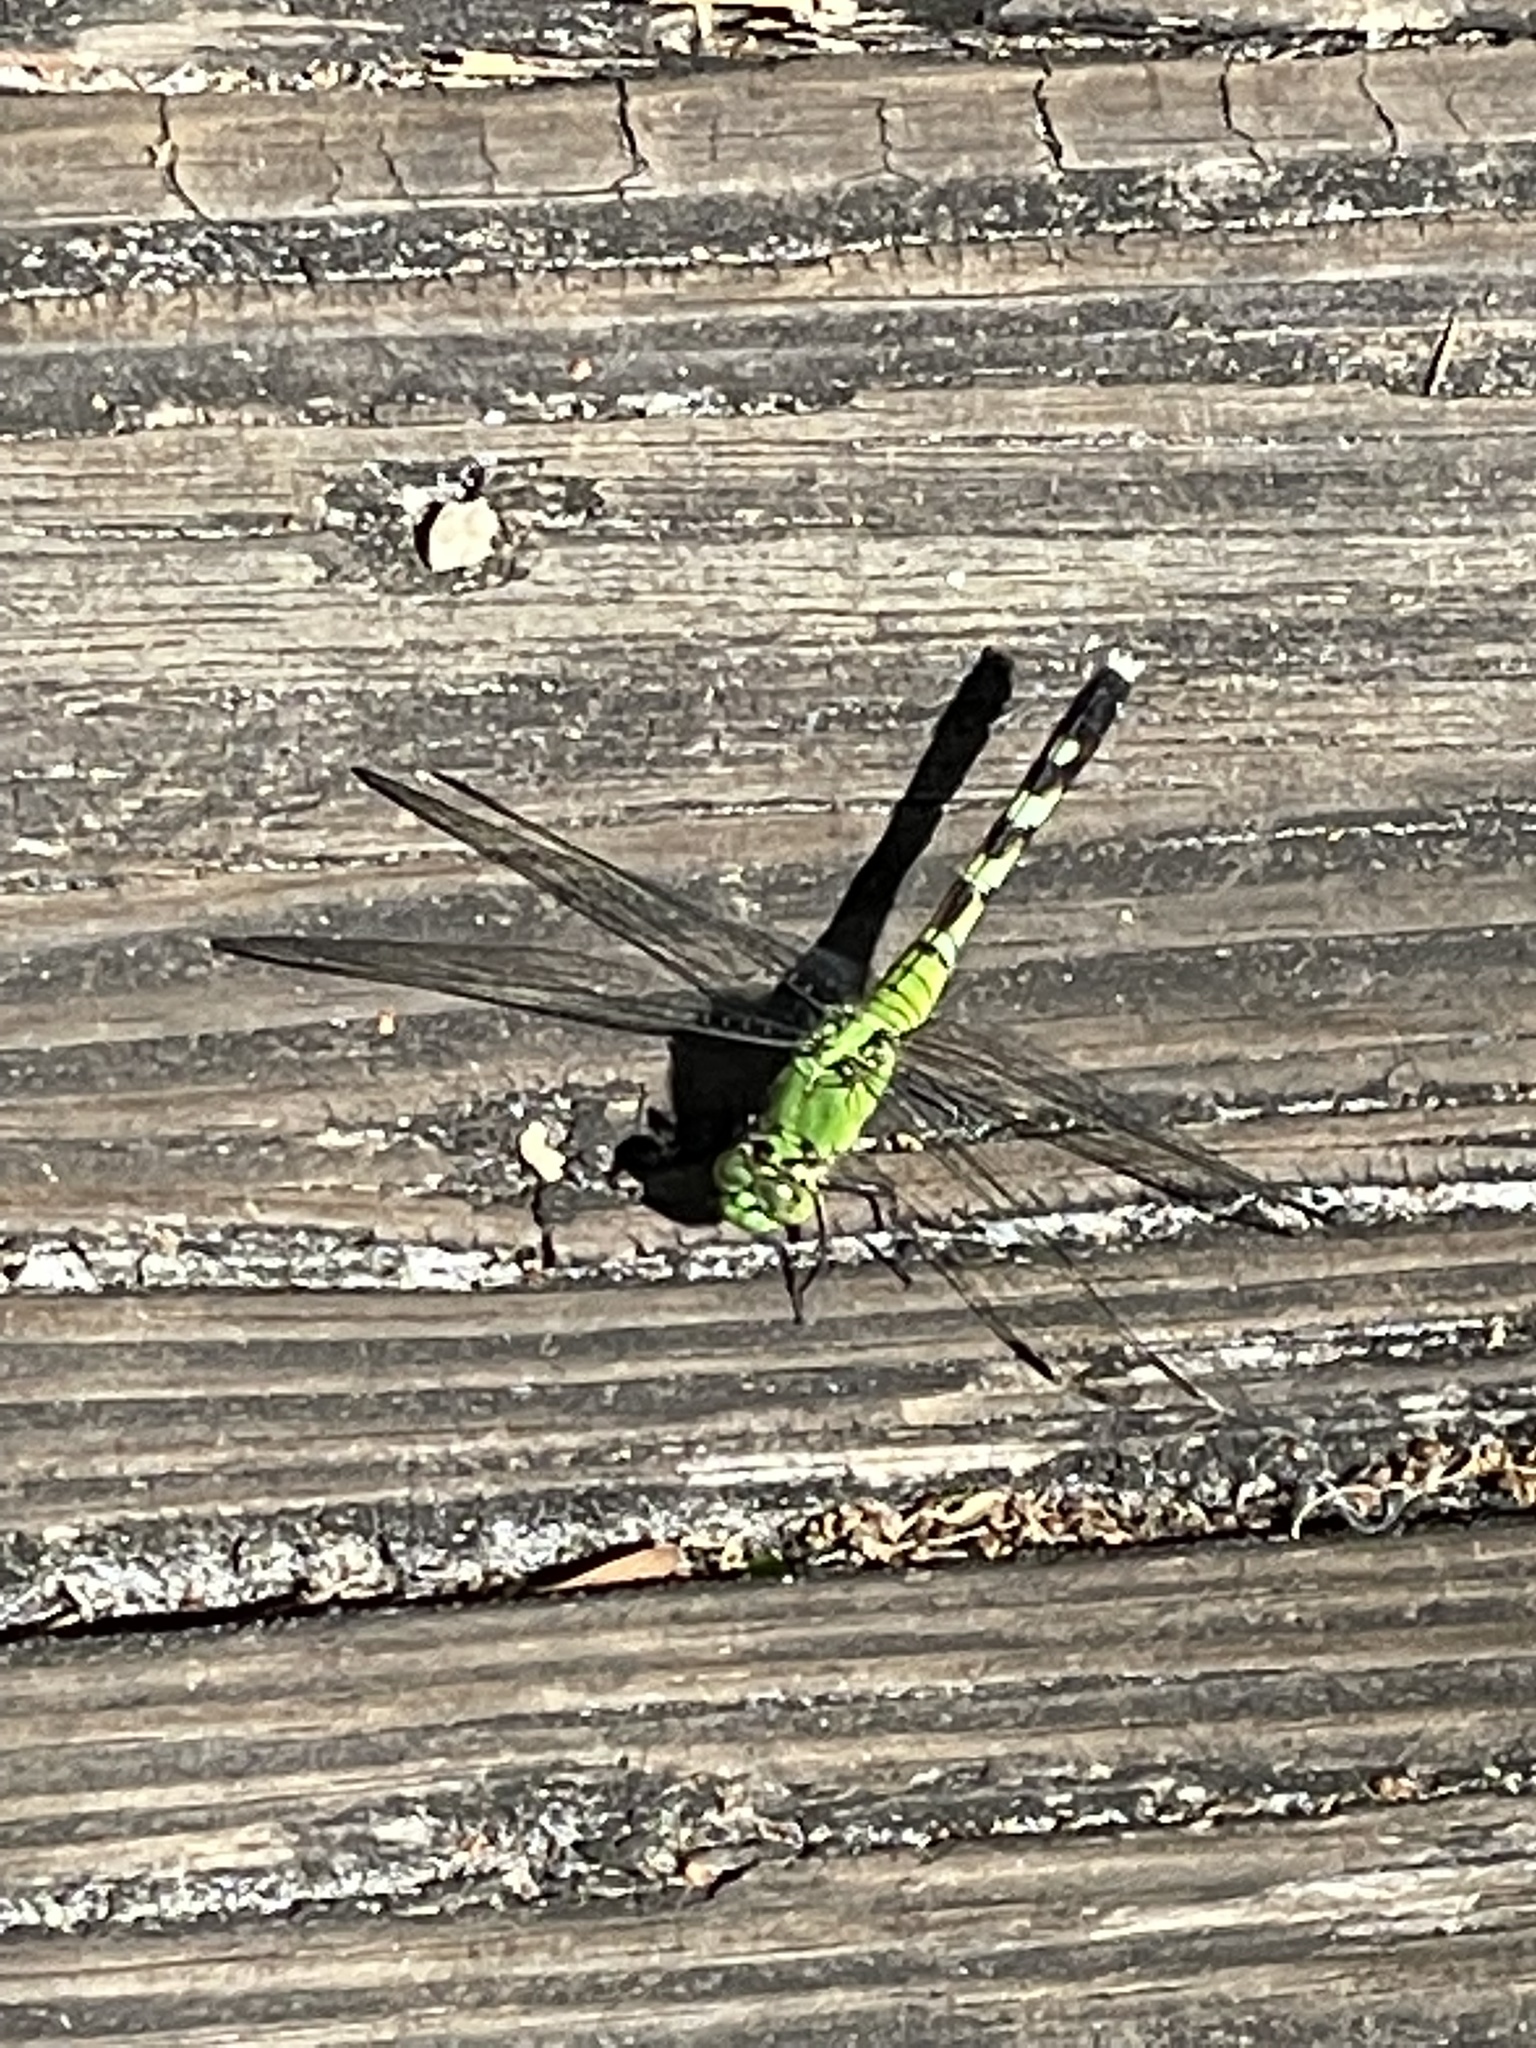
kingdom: Animalia
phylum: Arthropoda
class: Insecta
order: Odonata
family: Libellulidae
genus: Erythemis
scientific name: Erythemis simplicicollis
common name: Eastern pondhawk
